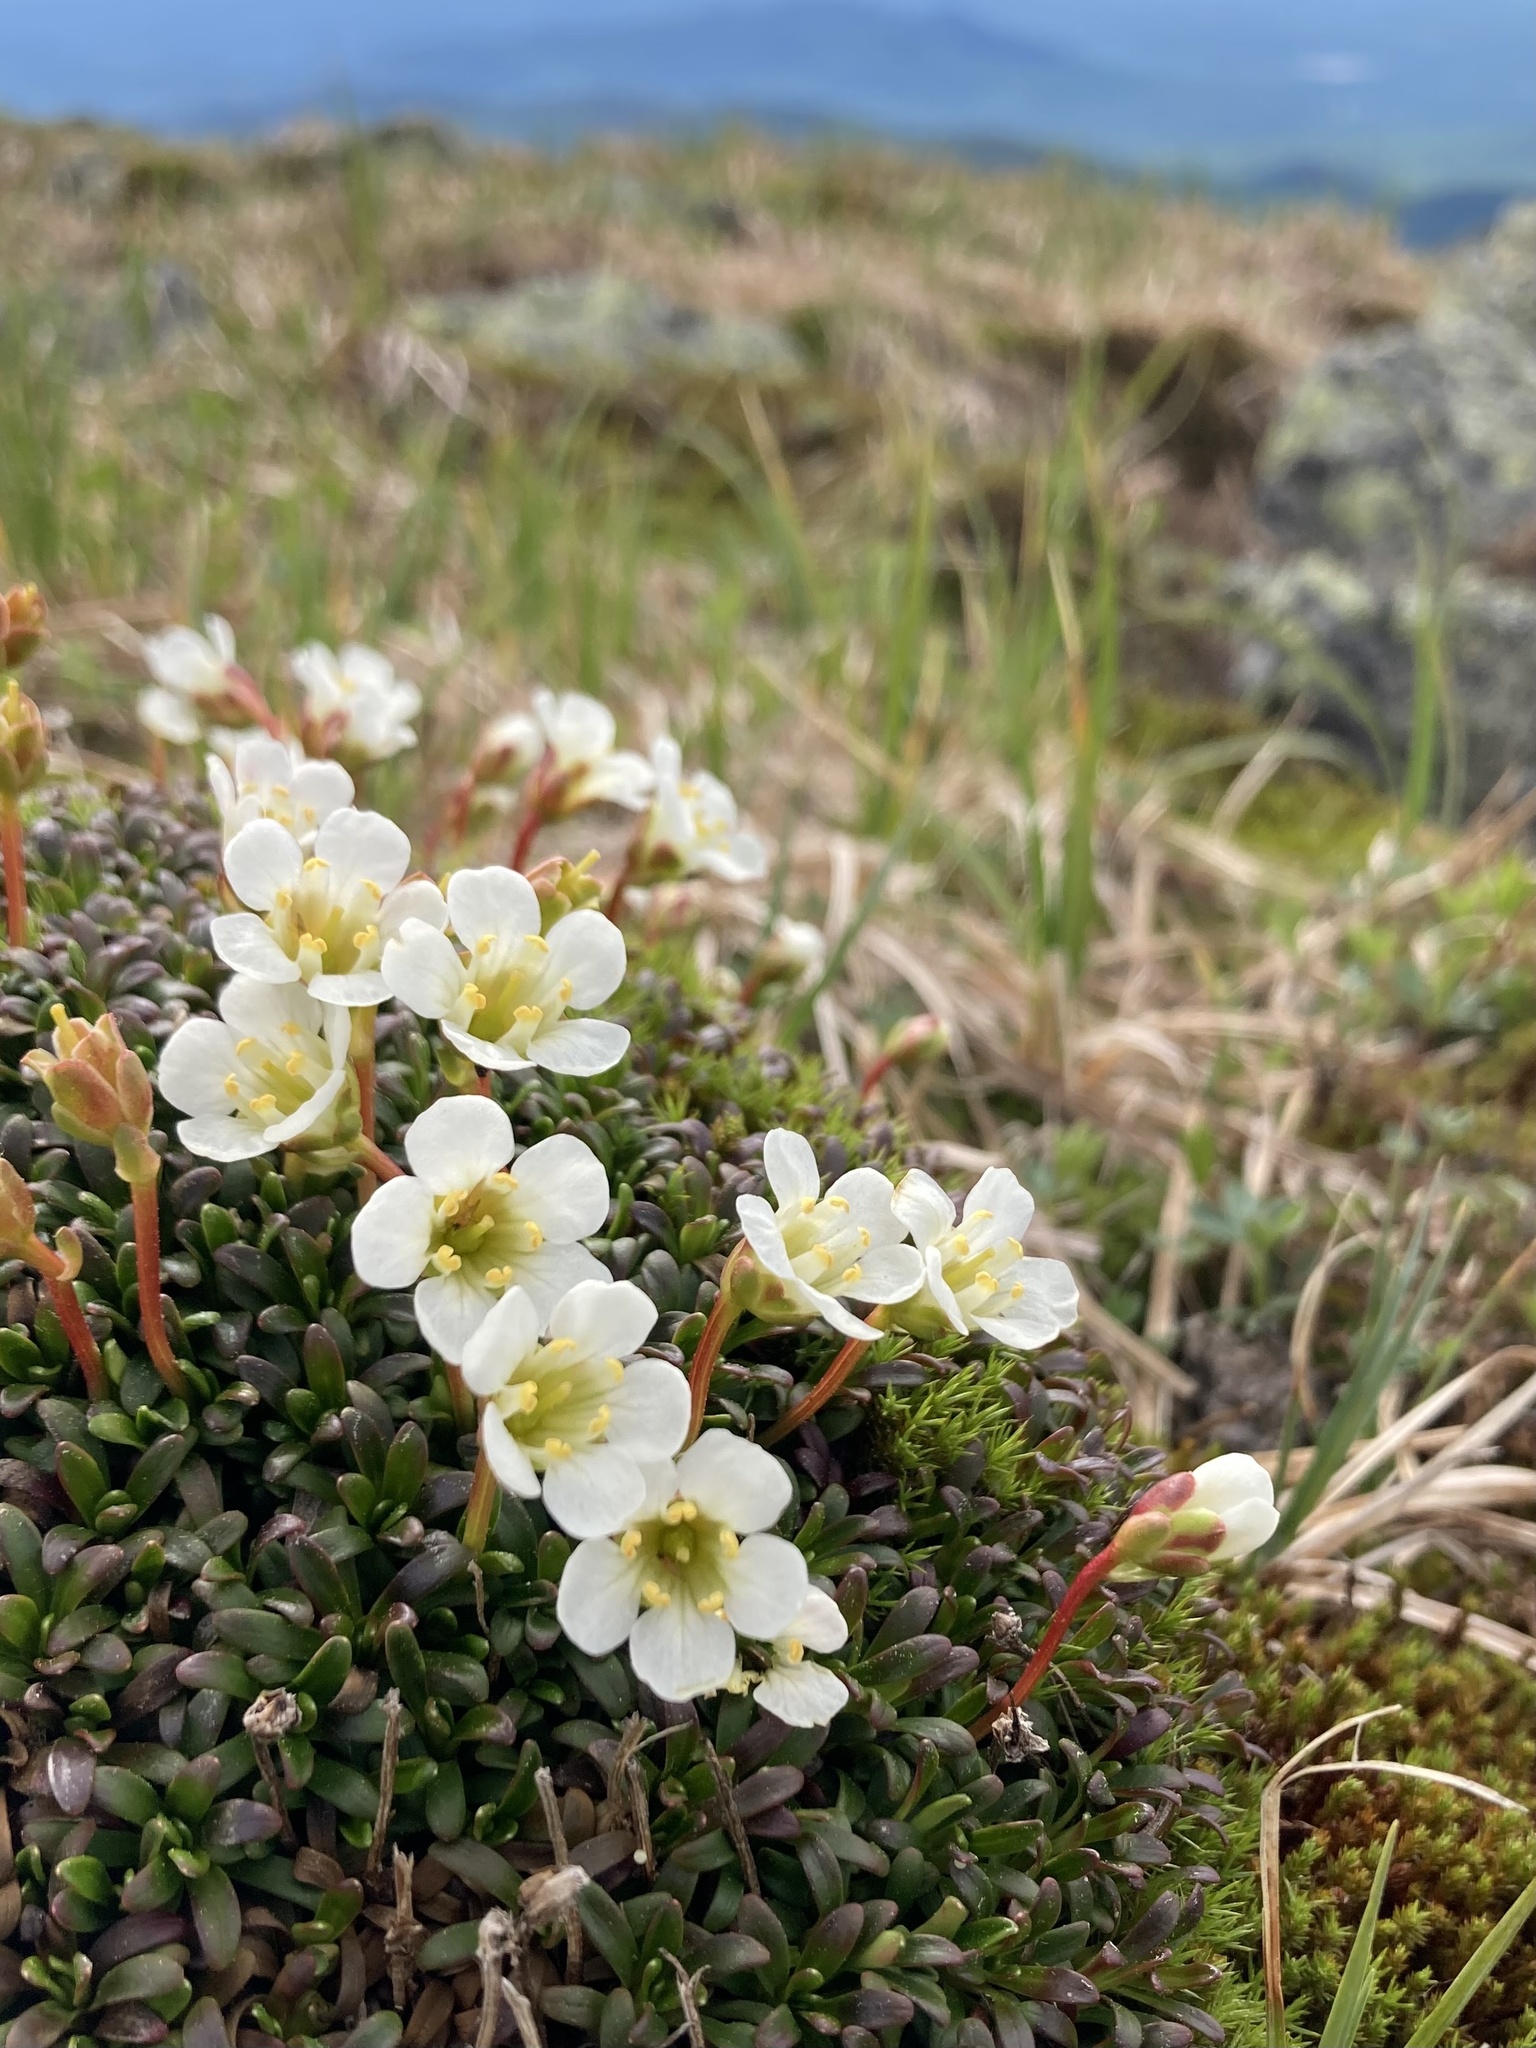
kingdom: Plantae
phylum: Tracheophyta
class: Magnoliopsida
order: Ericales
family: Diapensiaceae
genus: Diapensia
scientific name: Diapensia lapponica
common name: Diapensia
